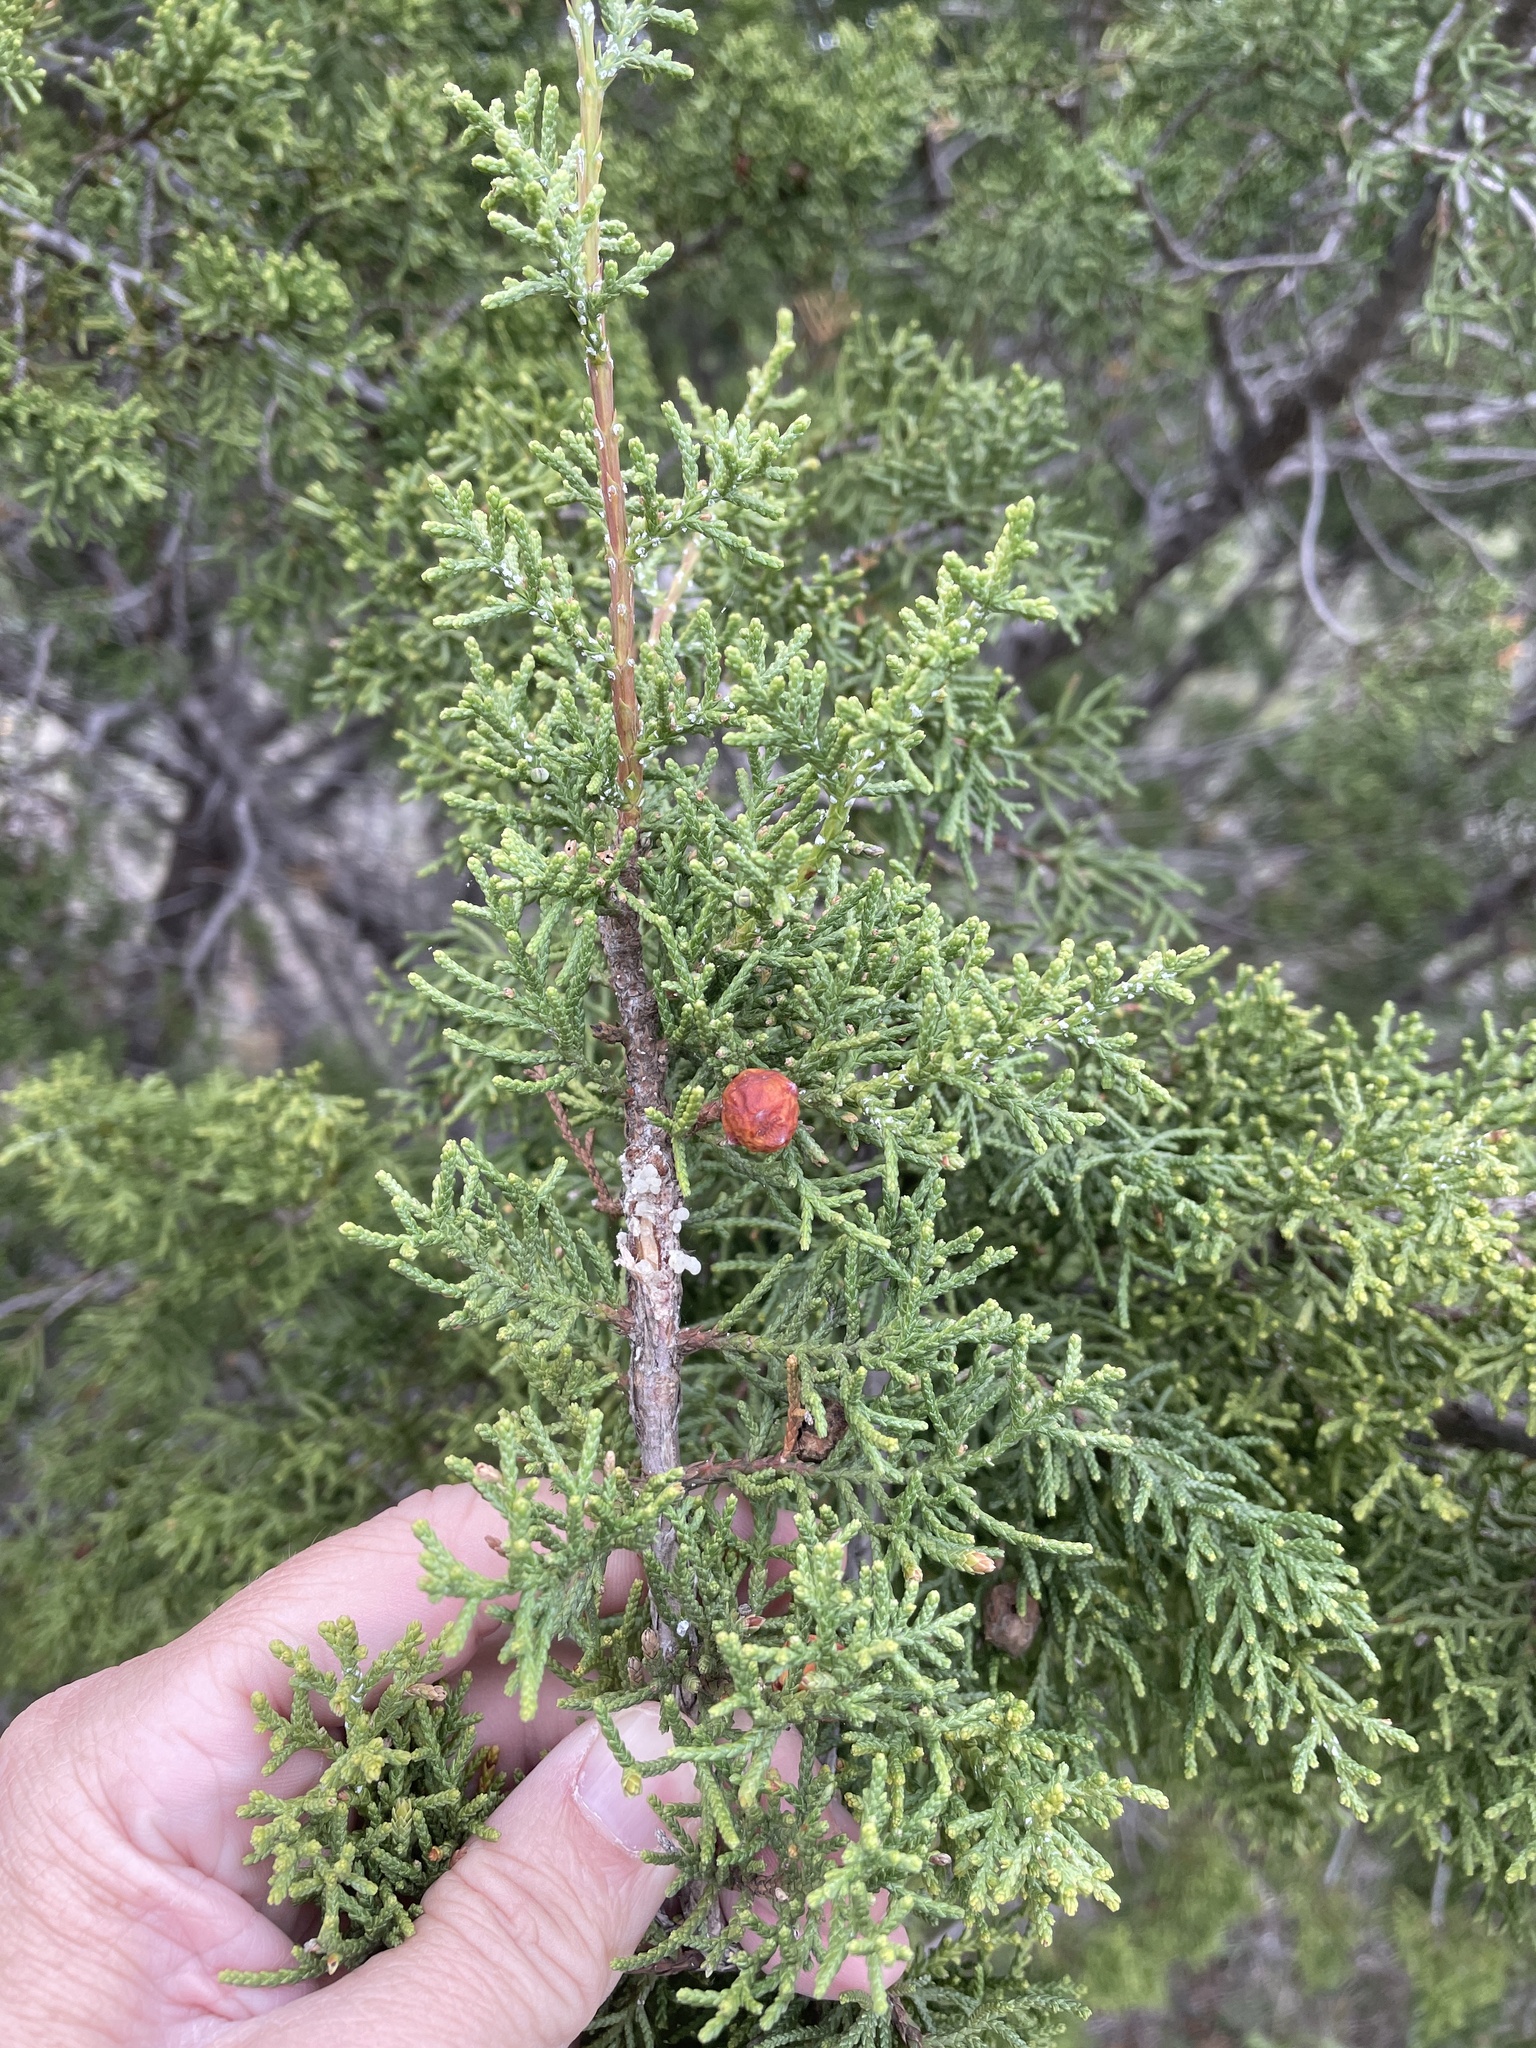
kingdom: Plantae
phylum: Tracheophyta
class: Pinopsida
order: Pinales
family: Cupressaceae
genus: Juniperus
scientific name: Juniperus pinchotii
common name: Pinchot juniper
